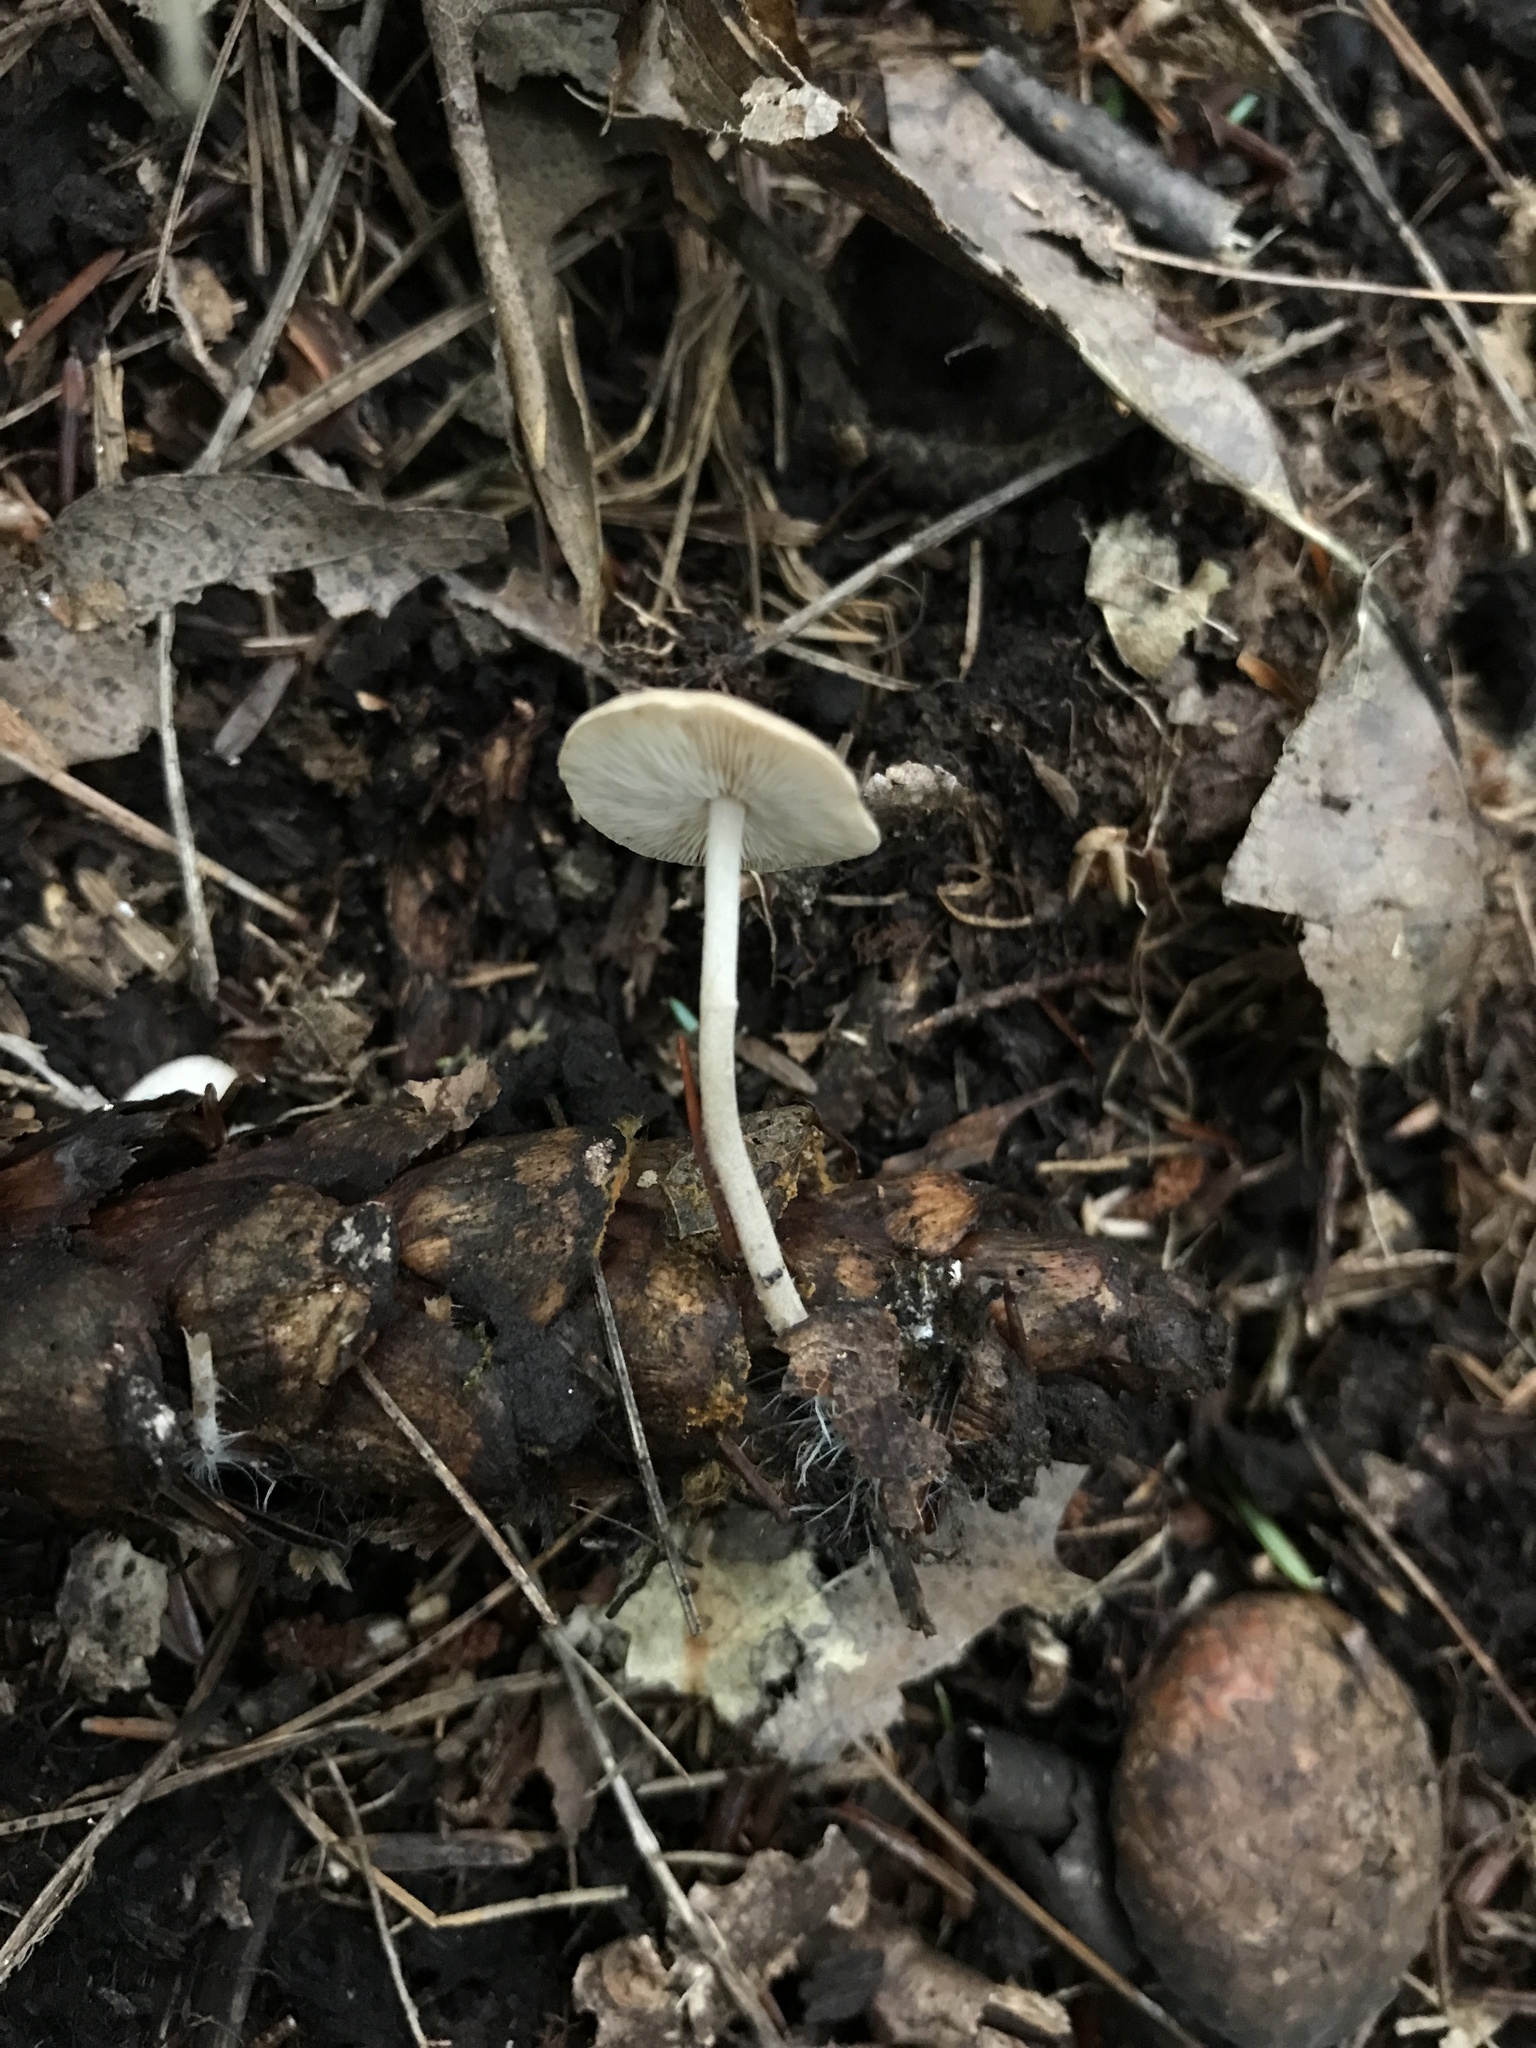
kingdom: Fungi
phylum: Basidiomycota
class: Agaricomycetes
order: Agaricales
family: Marasmiaceae
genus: Baeospora
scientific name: Baeospora myosura
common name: Conifercone cap
